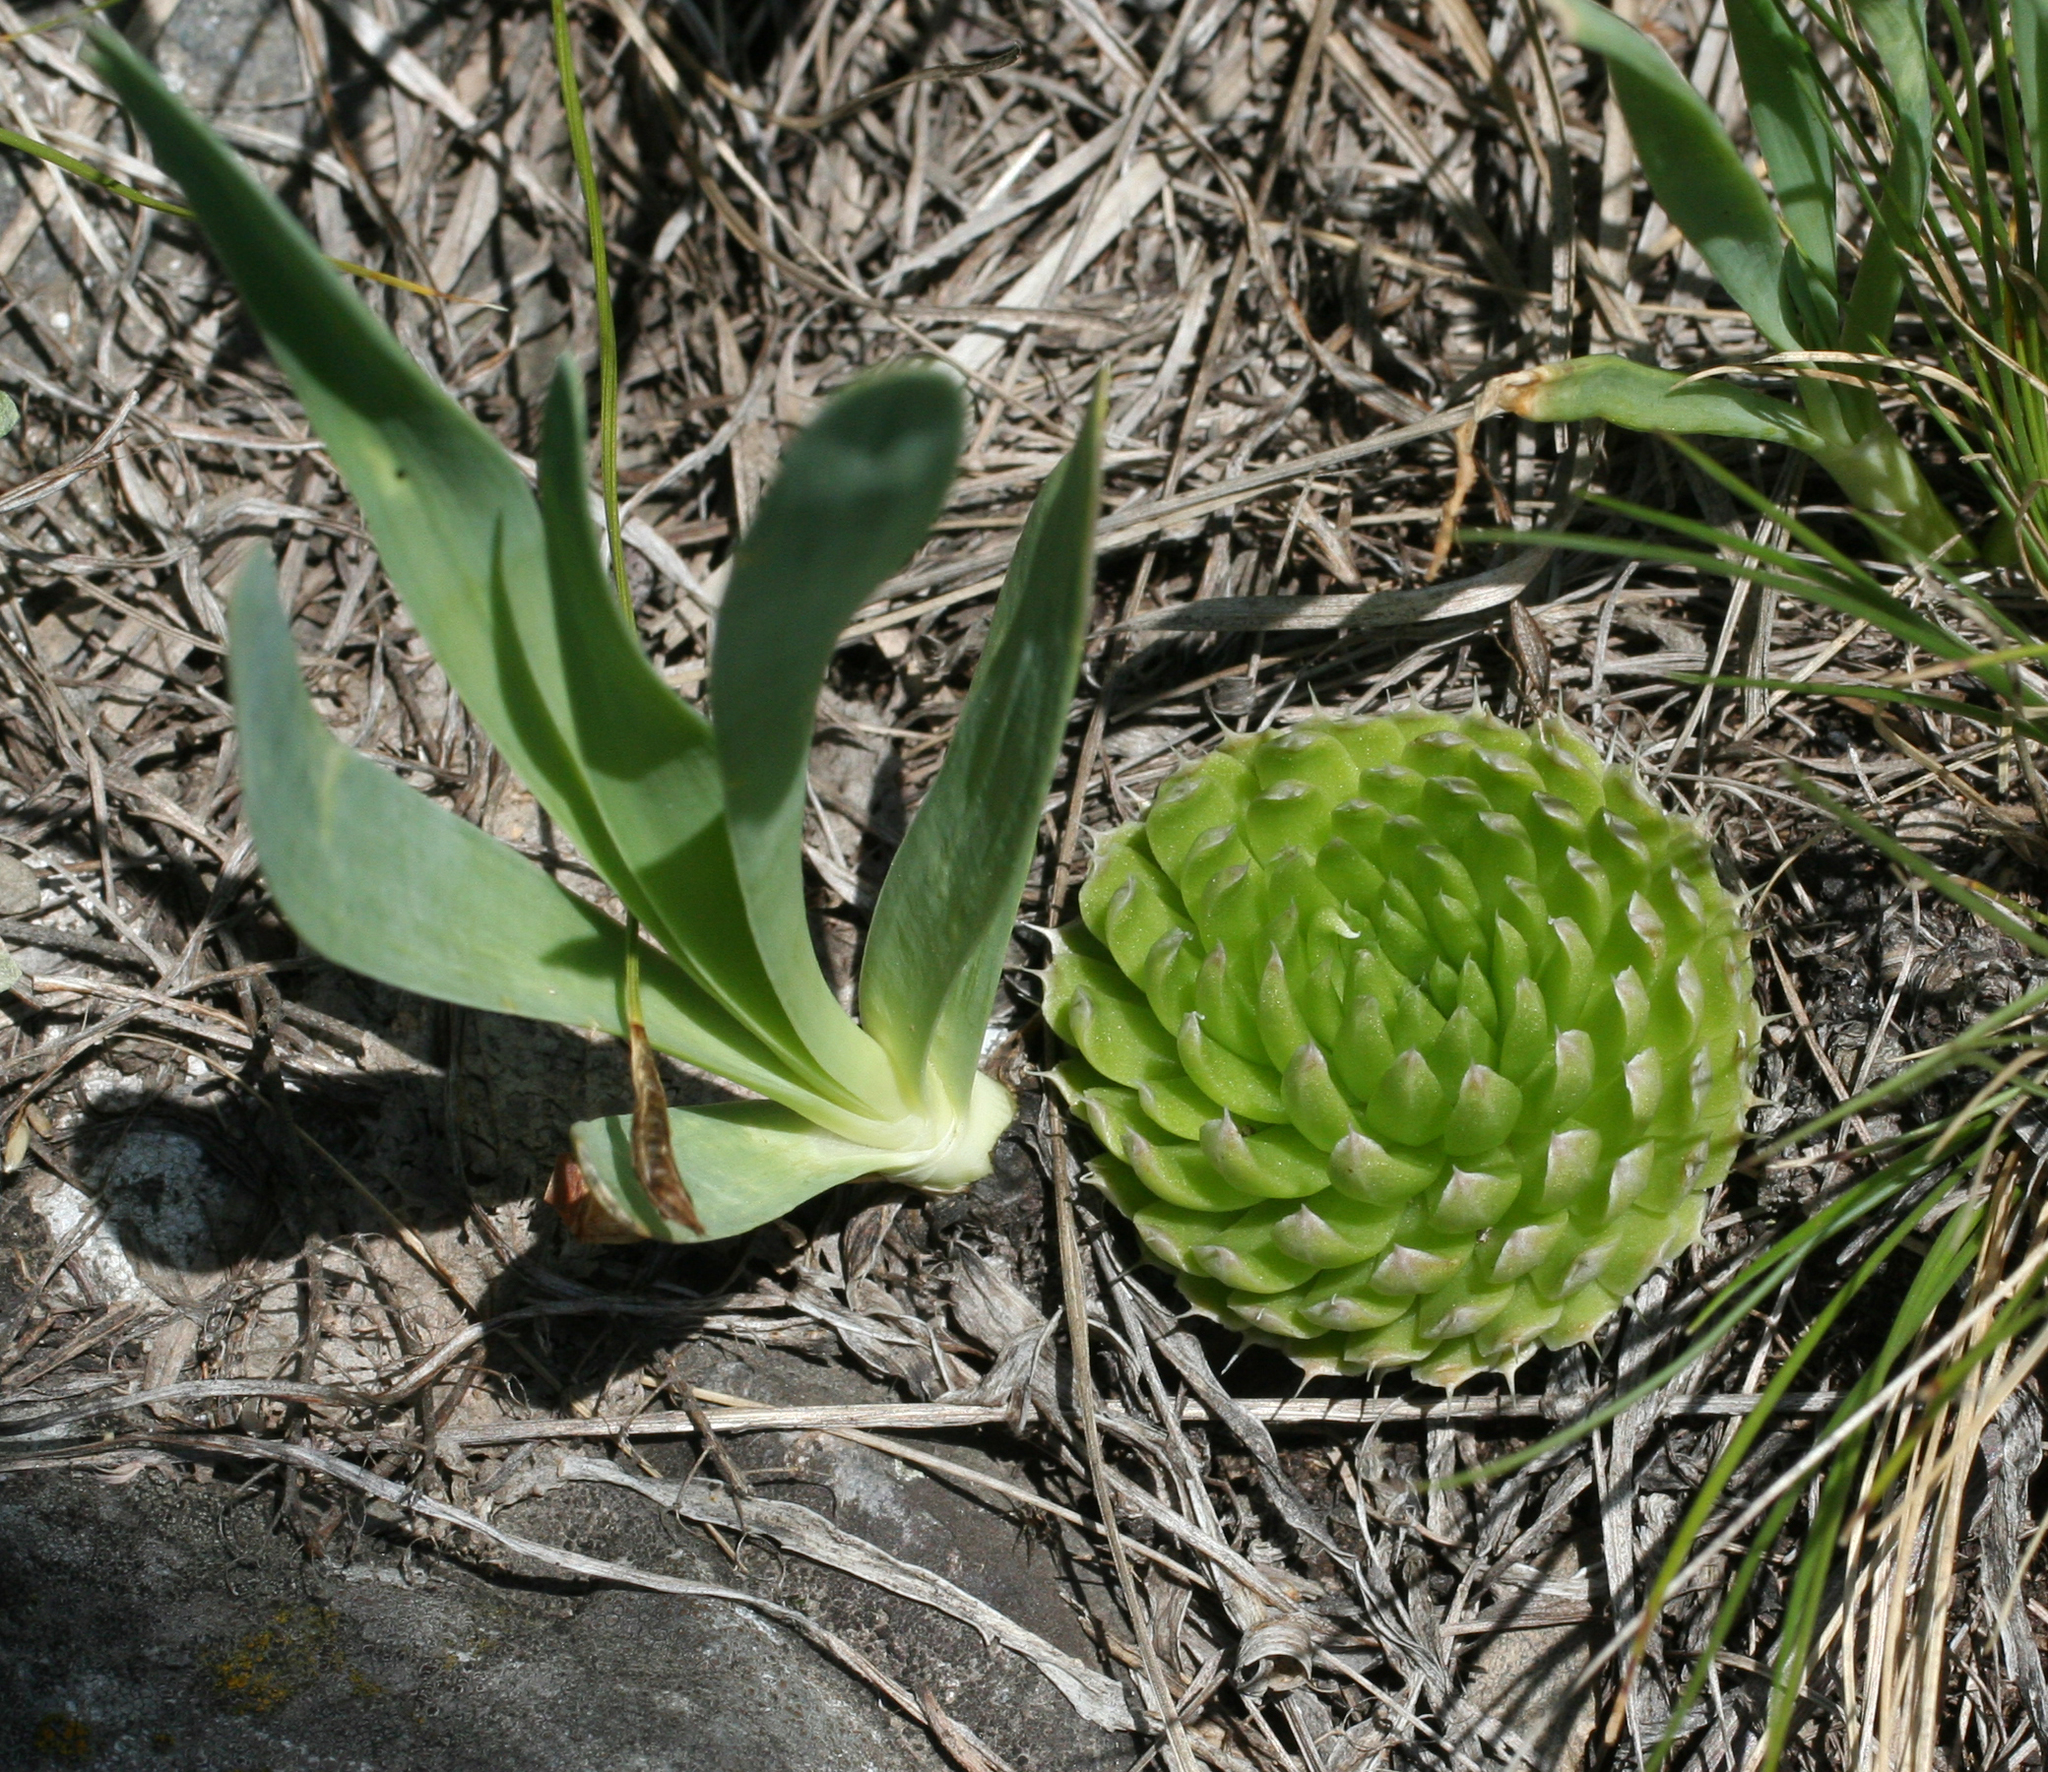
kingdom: Plantae
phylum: Tracheophyta
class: Liliopsida
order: Asparagales
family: Amaryllidaceae
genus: Allium
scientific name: Allium nutans
